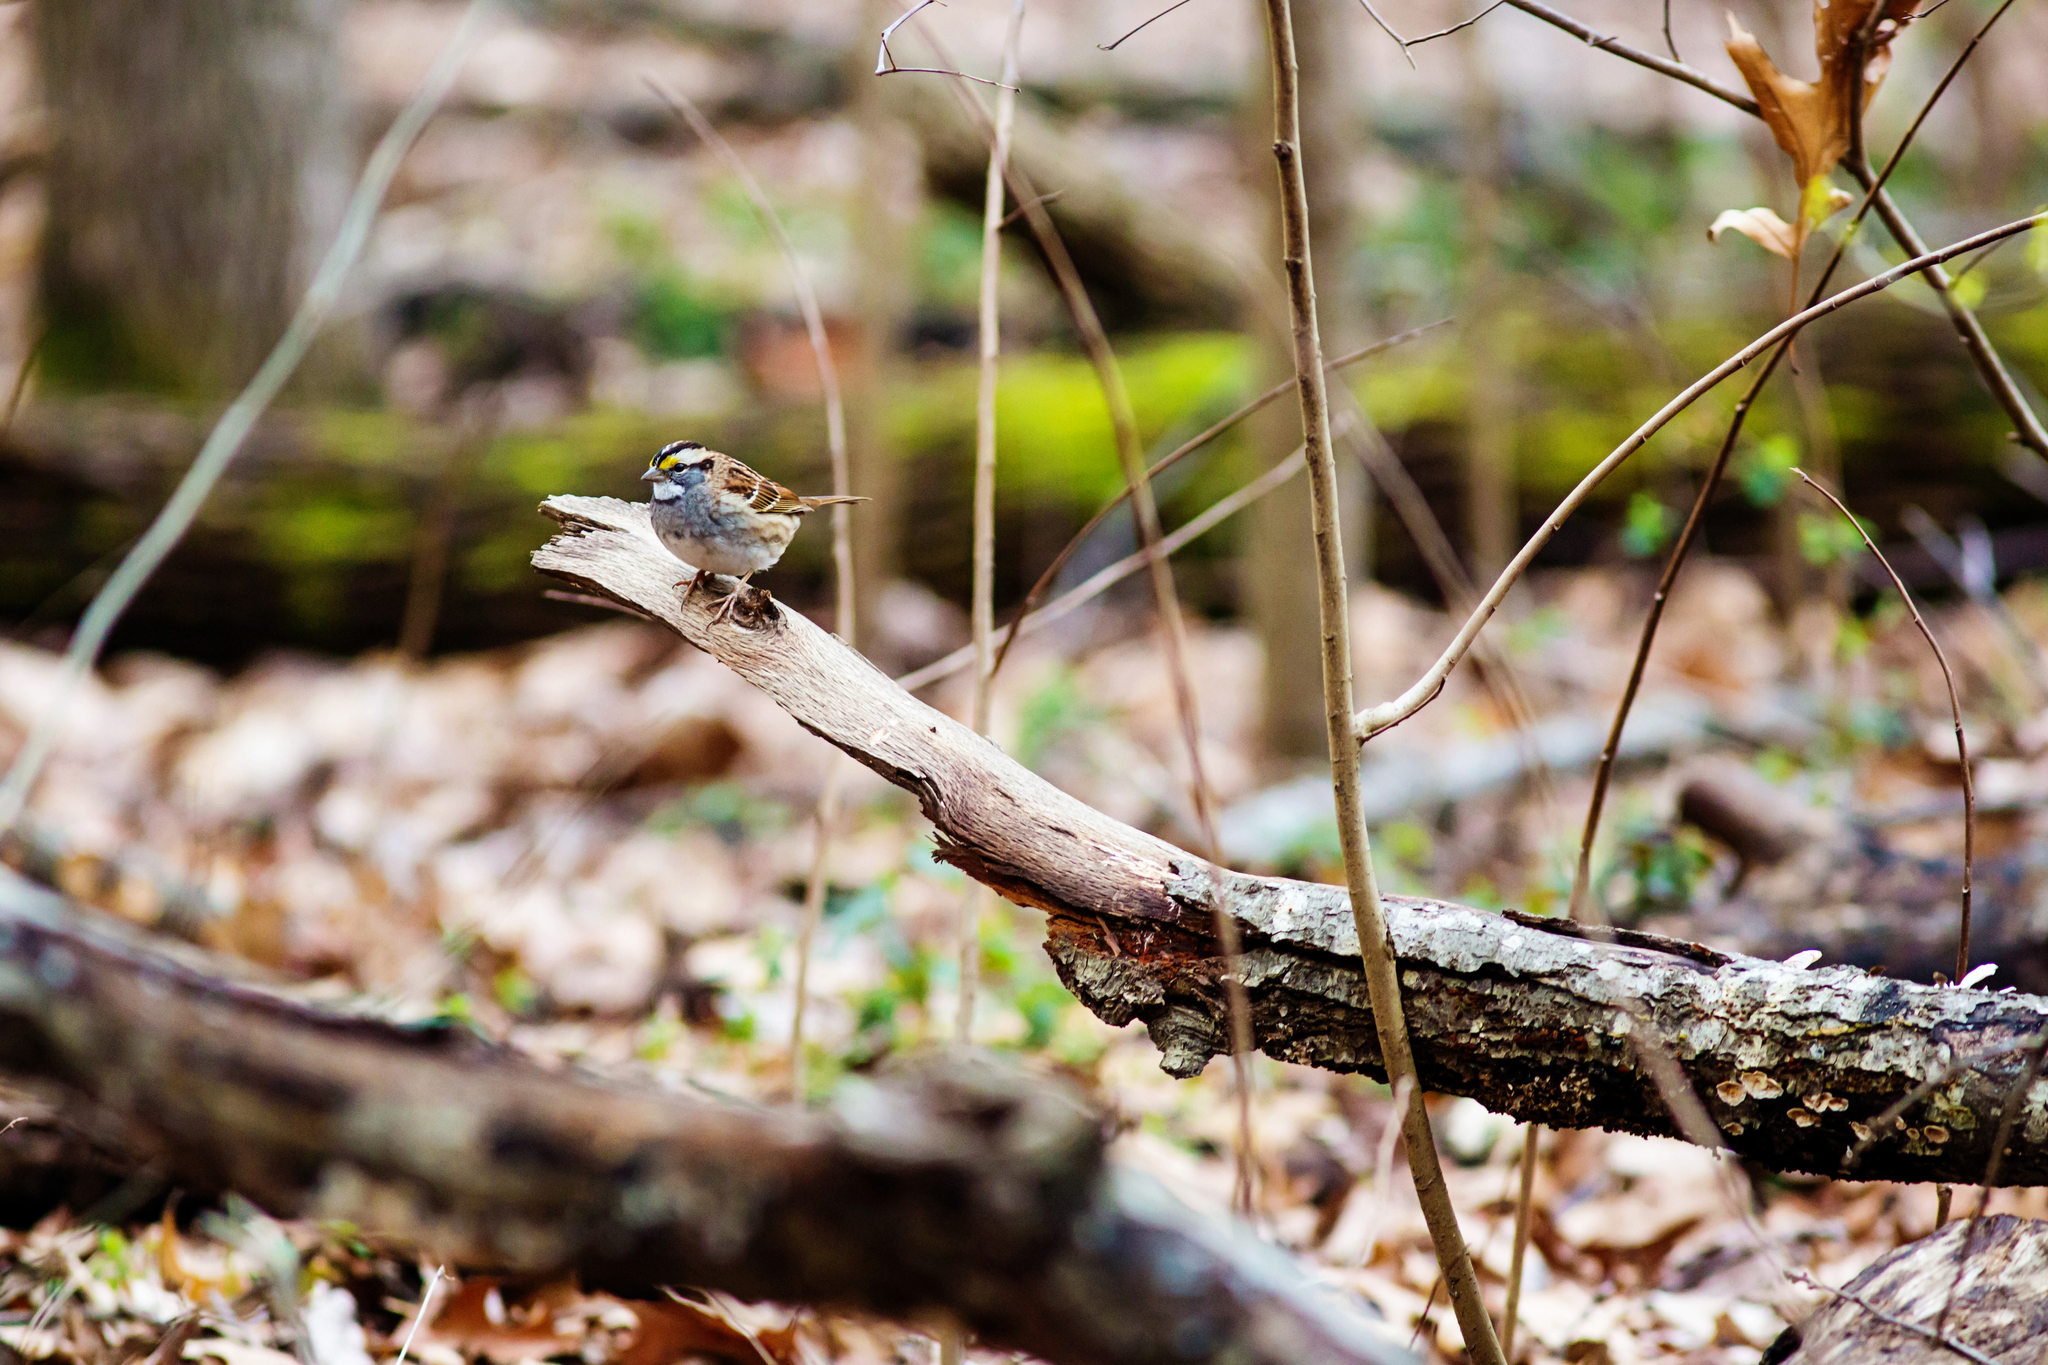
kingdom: Animalia
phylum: Chordata
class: Aves
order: Passeriformes
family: Passerellidae
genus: Zonotrichia
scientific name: Zonotrichia albicollis
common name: White-throated sparrow
